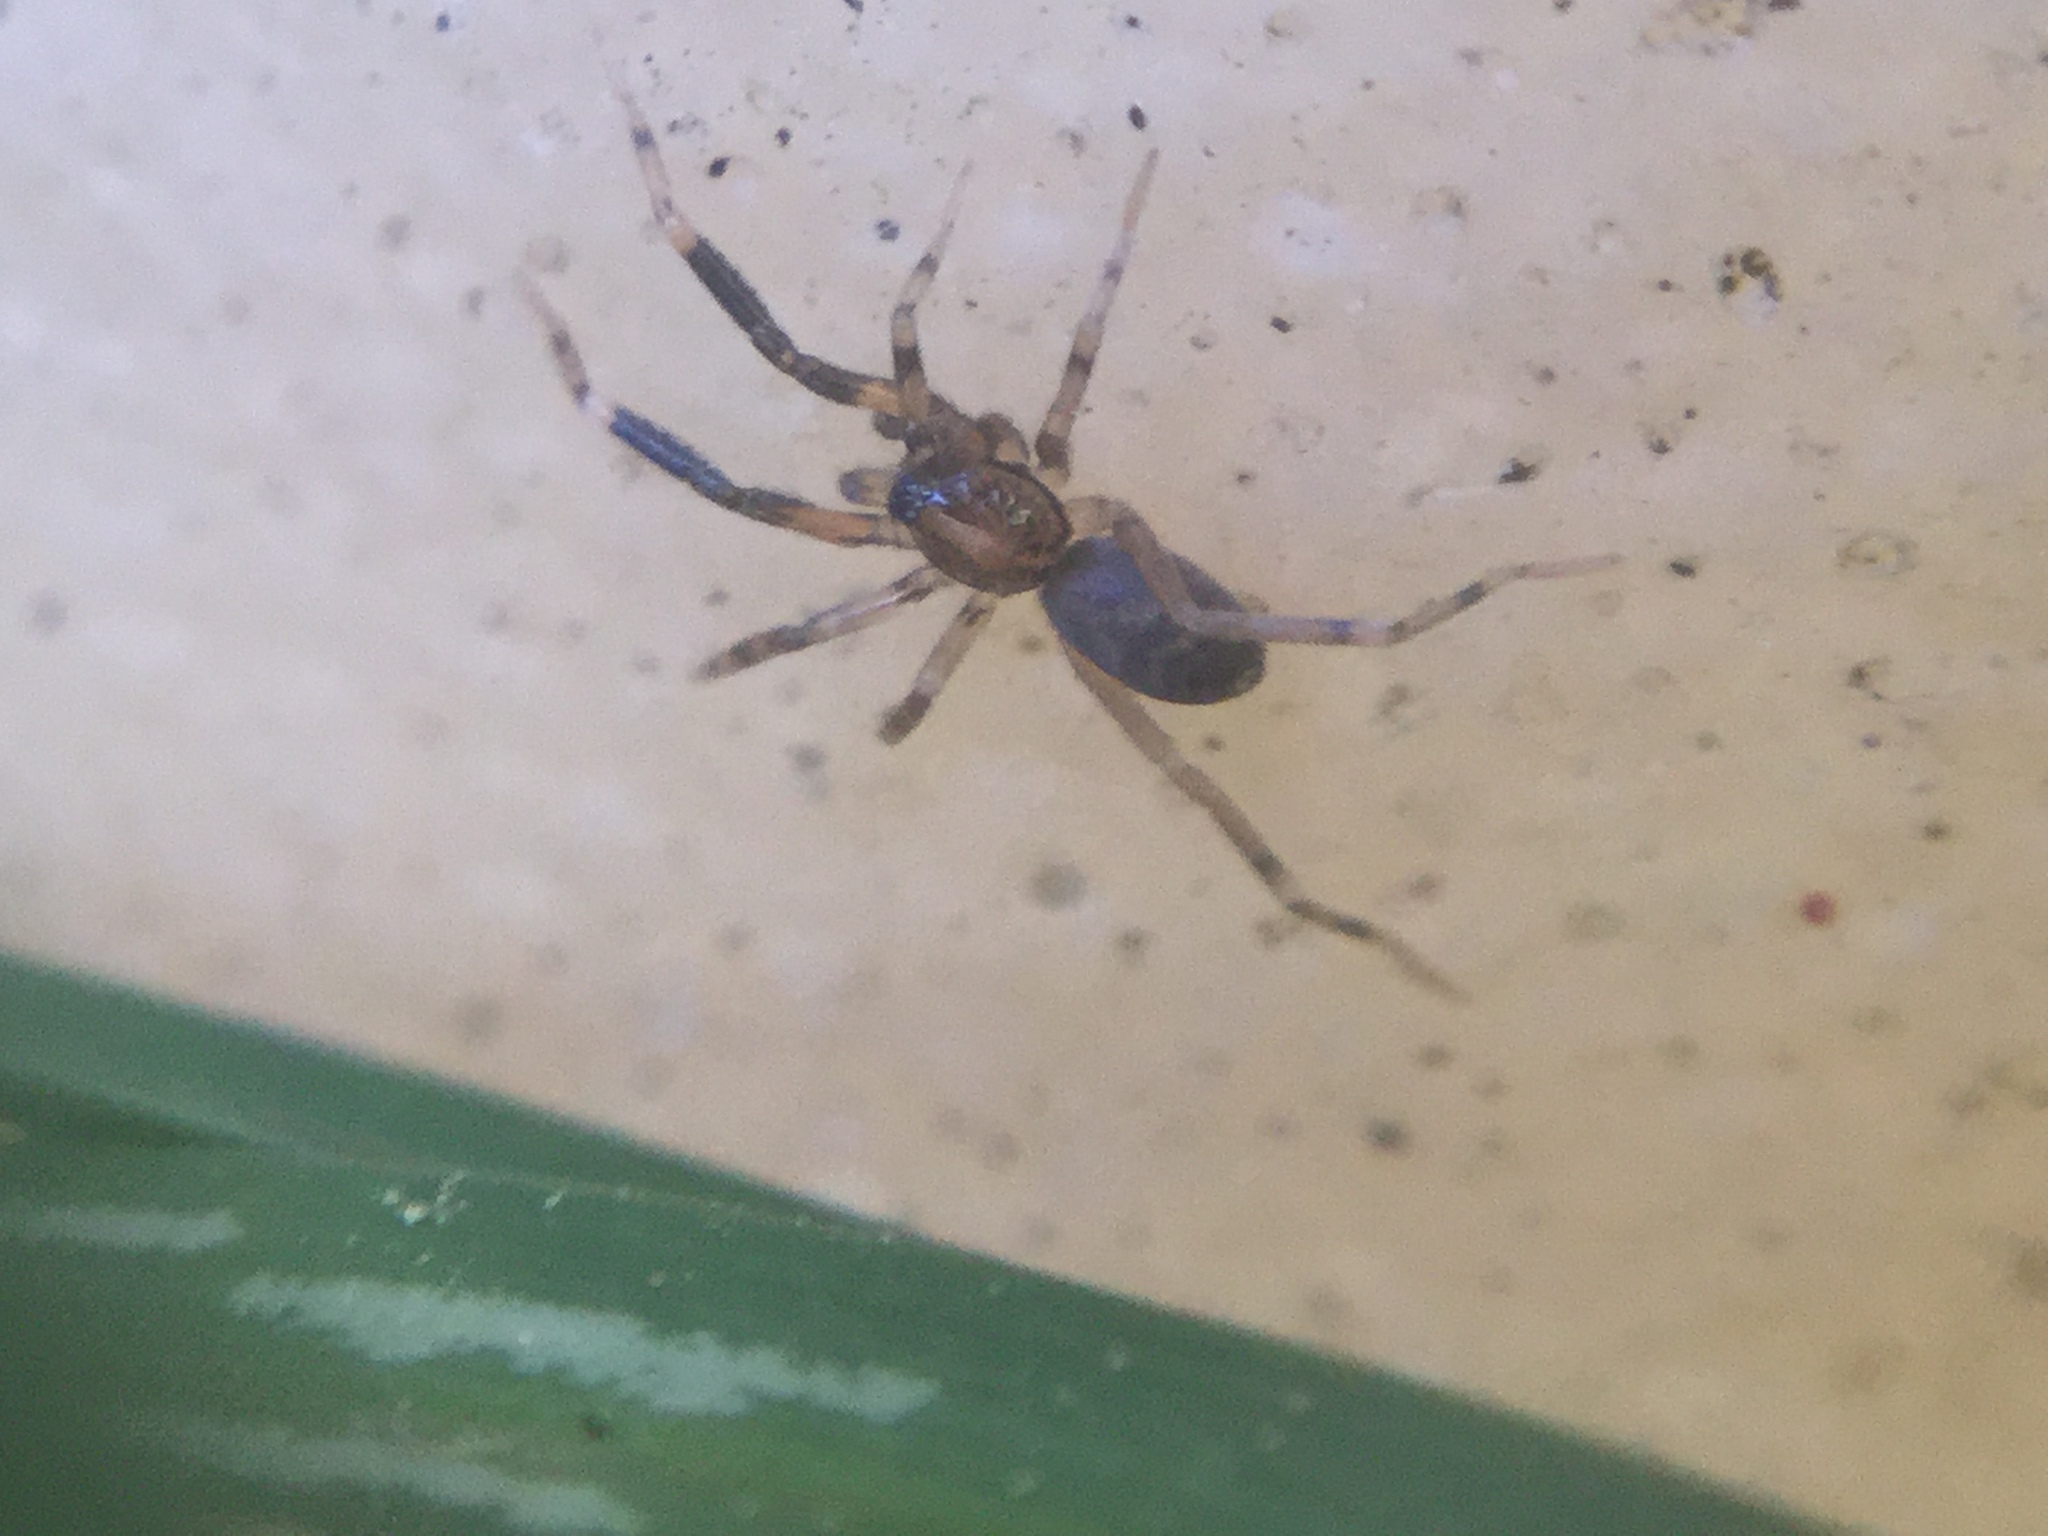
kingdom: Animalia
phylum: Arthropoda
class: Arachnida
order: Araneae
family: Phrurolithidae
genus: Phrurotimpus
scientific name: Phrurotimpus borealis
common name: Greater ant-mimic corinne spider
